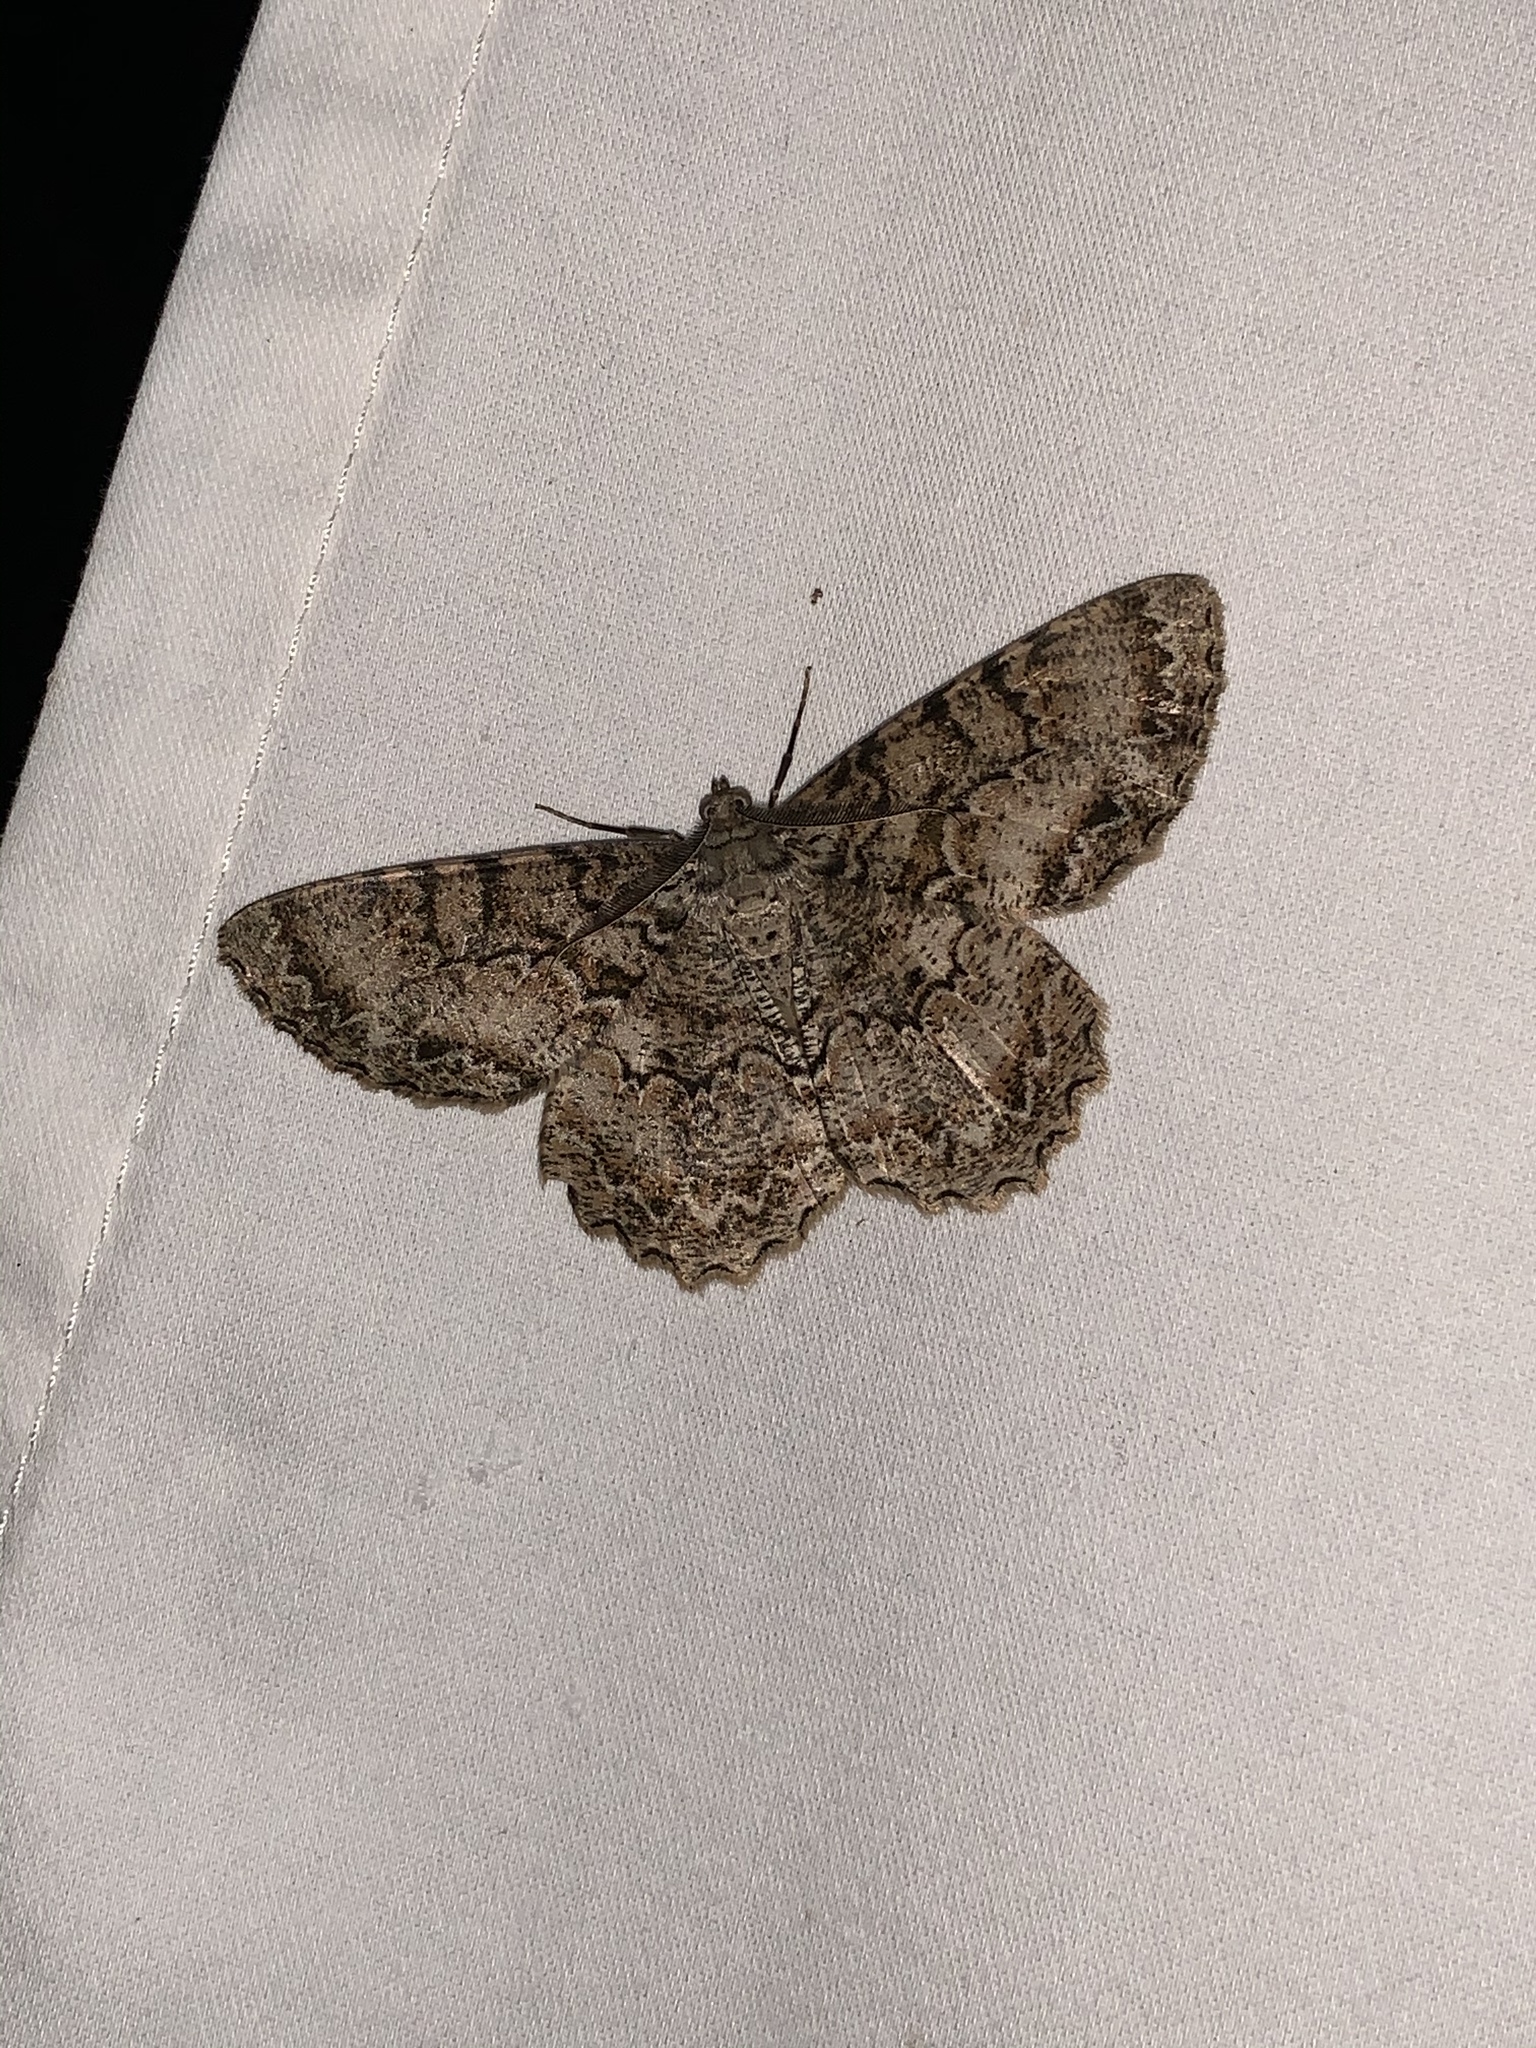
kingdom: Animalia
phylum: Arthropoda
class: Insecta
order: Lepidoptera
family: Geometridae
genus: Epimecis
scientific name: Epimecis hortaria
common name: Tulip-tree beauty
